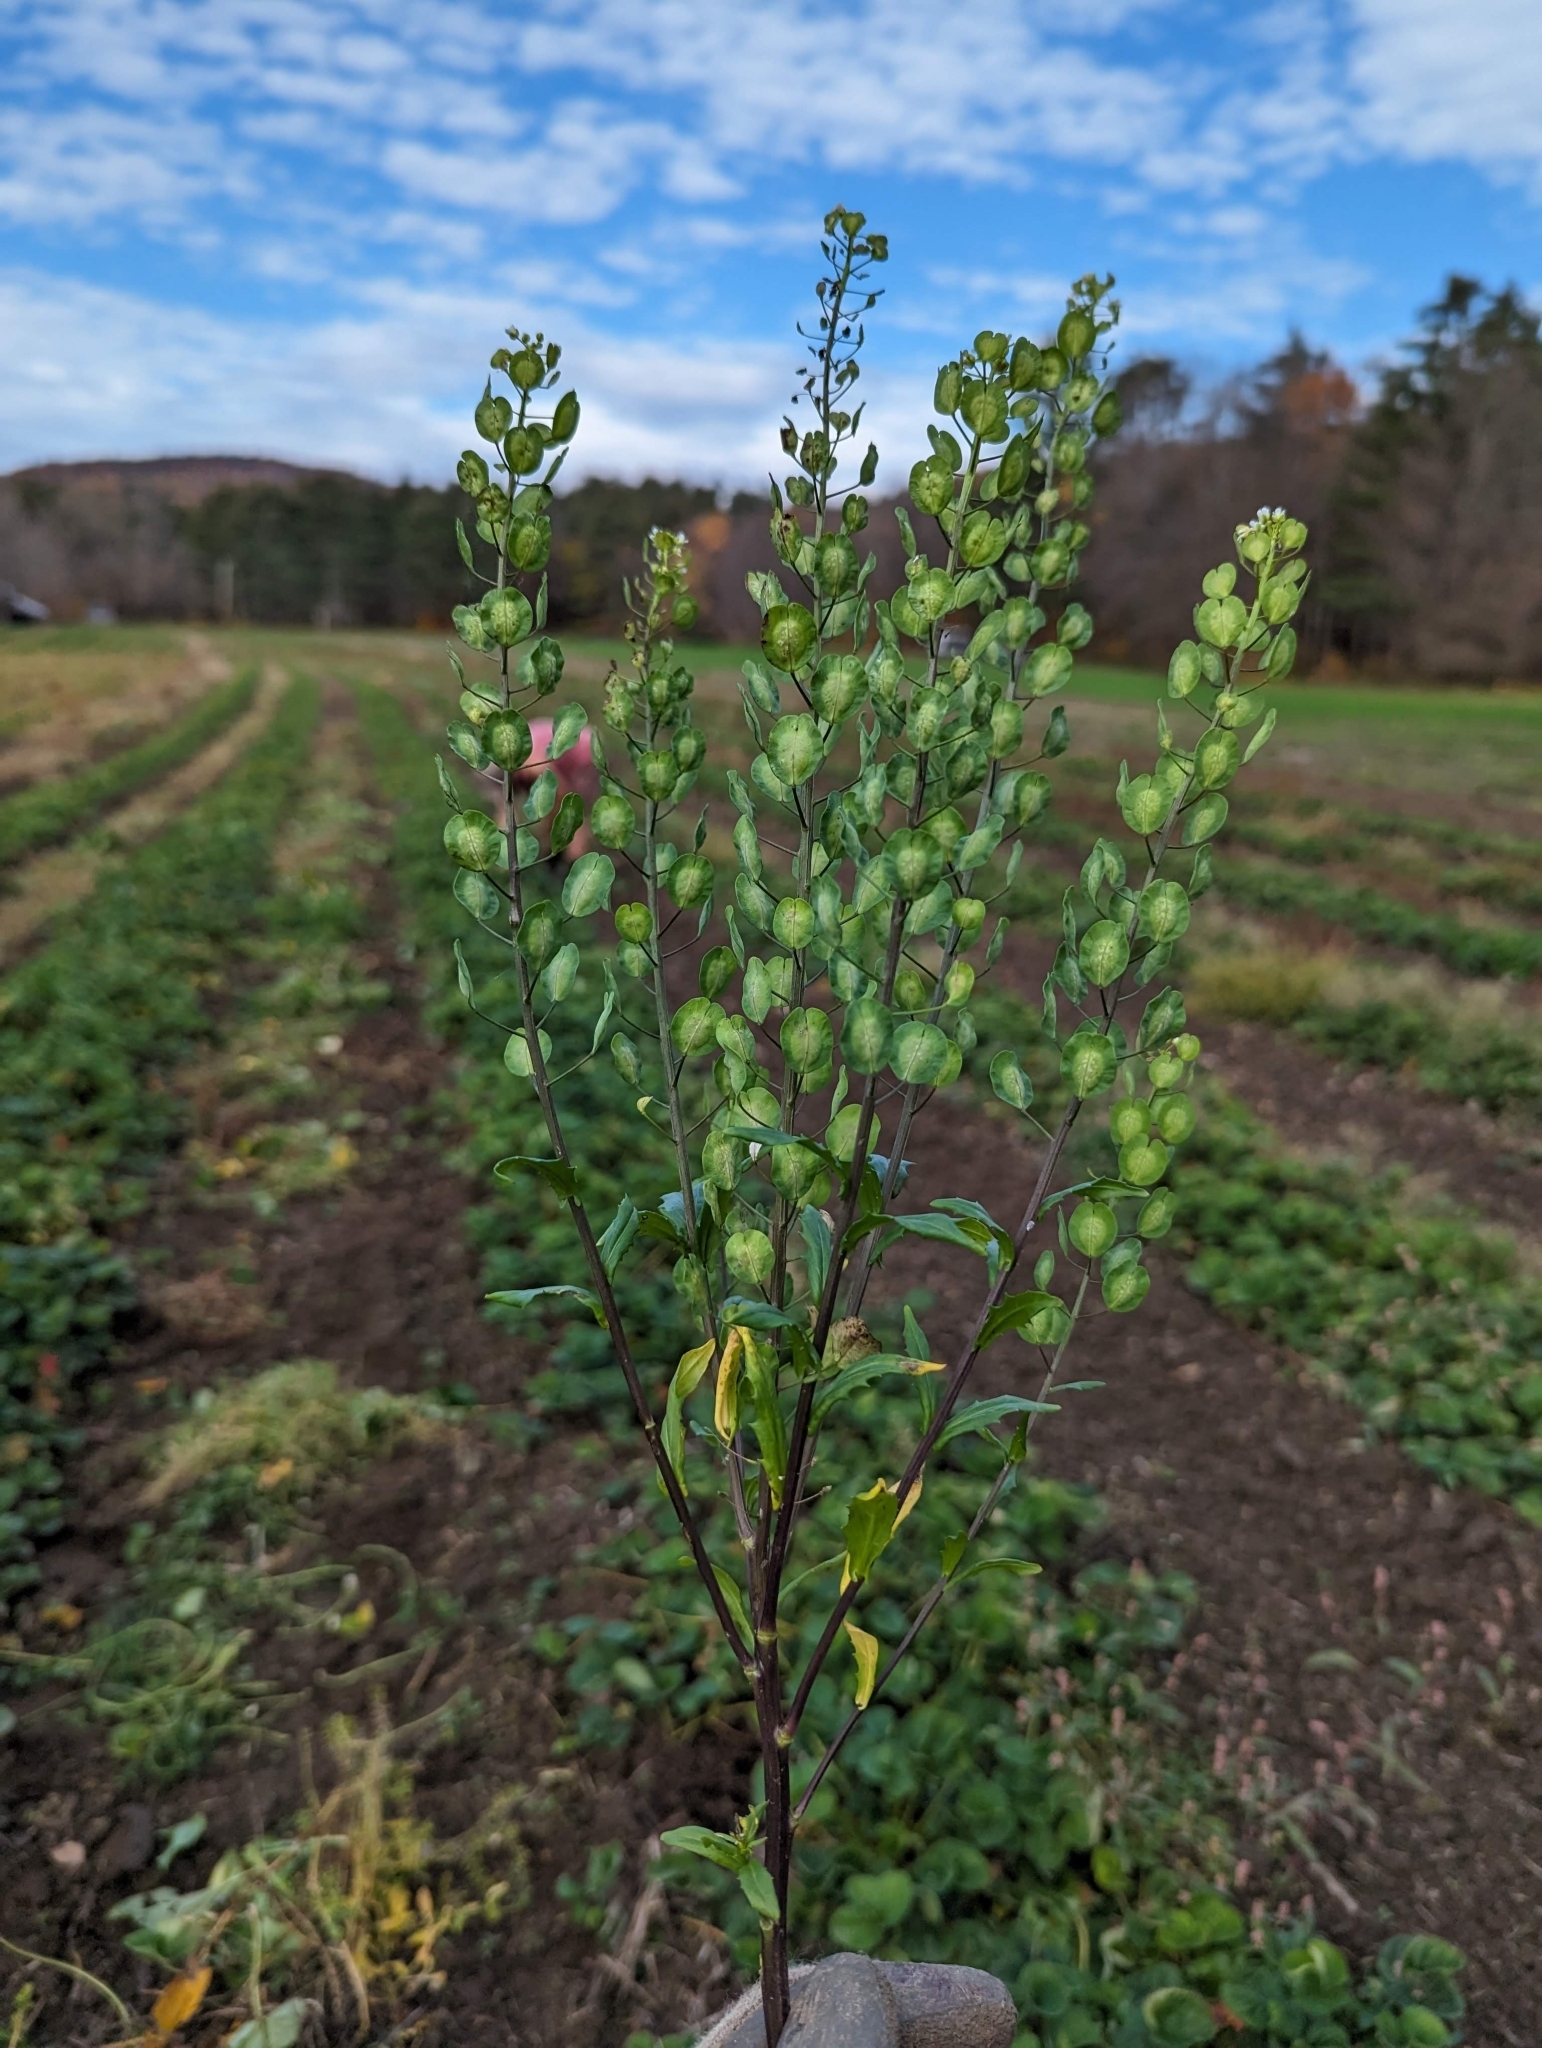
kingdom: Plantae
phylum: Tracheophyta
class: Magnoliopsida
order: Brassicales
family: Brassicaceae
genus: Thlaspi
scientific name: Thlaspi arvense
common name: Field pennycress
